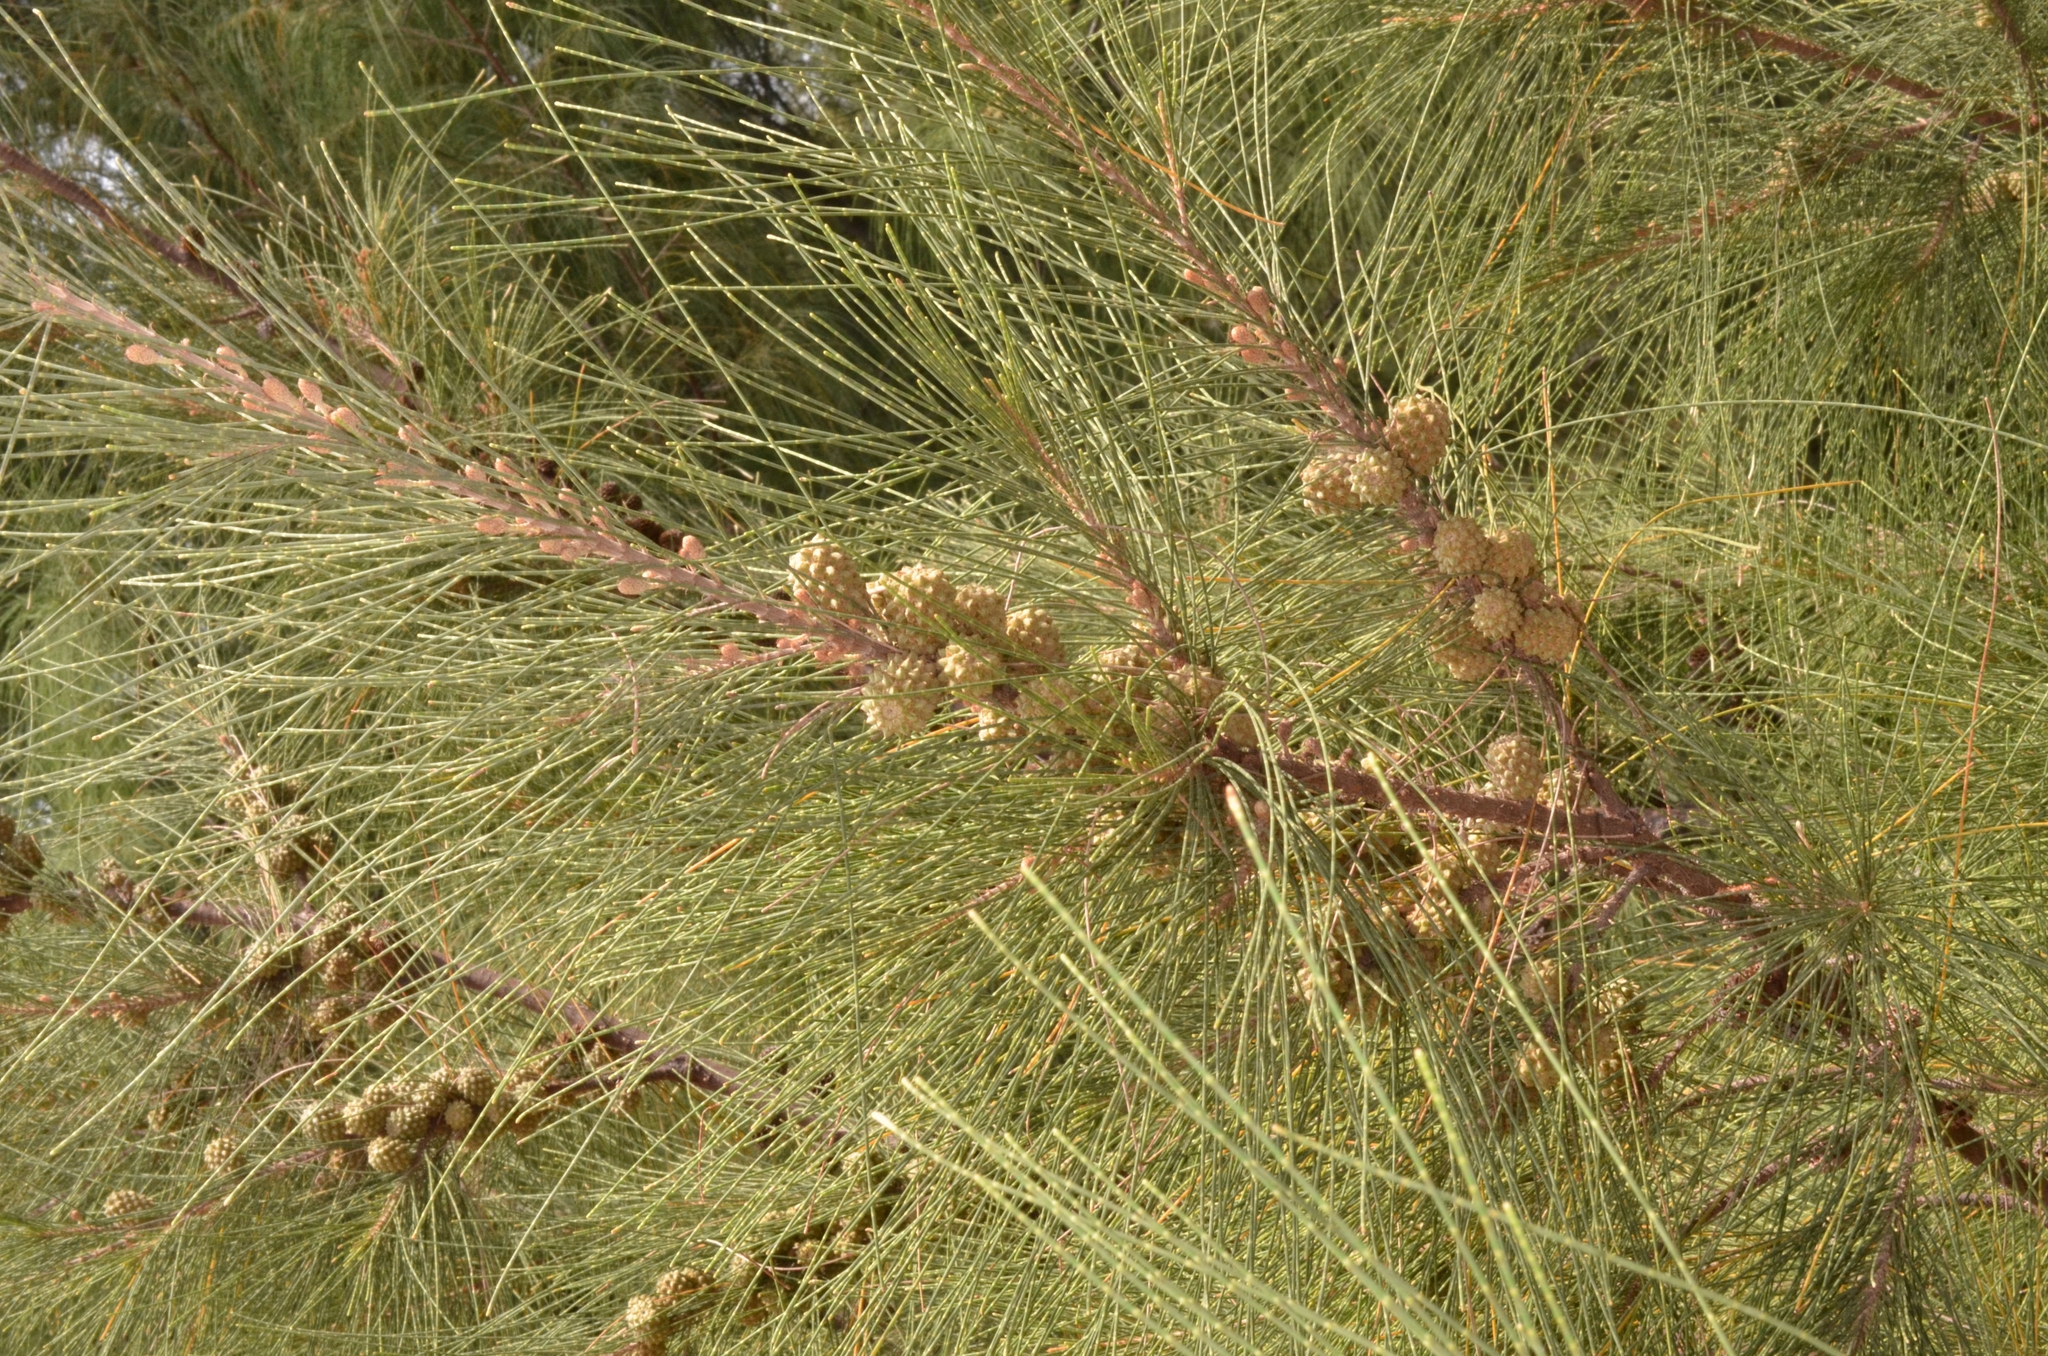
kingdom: Plantae
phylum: Tracheophyta
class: Magnoliopsida
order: Fagales
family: Casuarinaceae
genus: Casuarina
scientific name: Casuarina equisetifolia
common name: Beach sheoak
